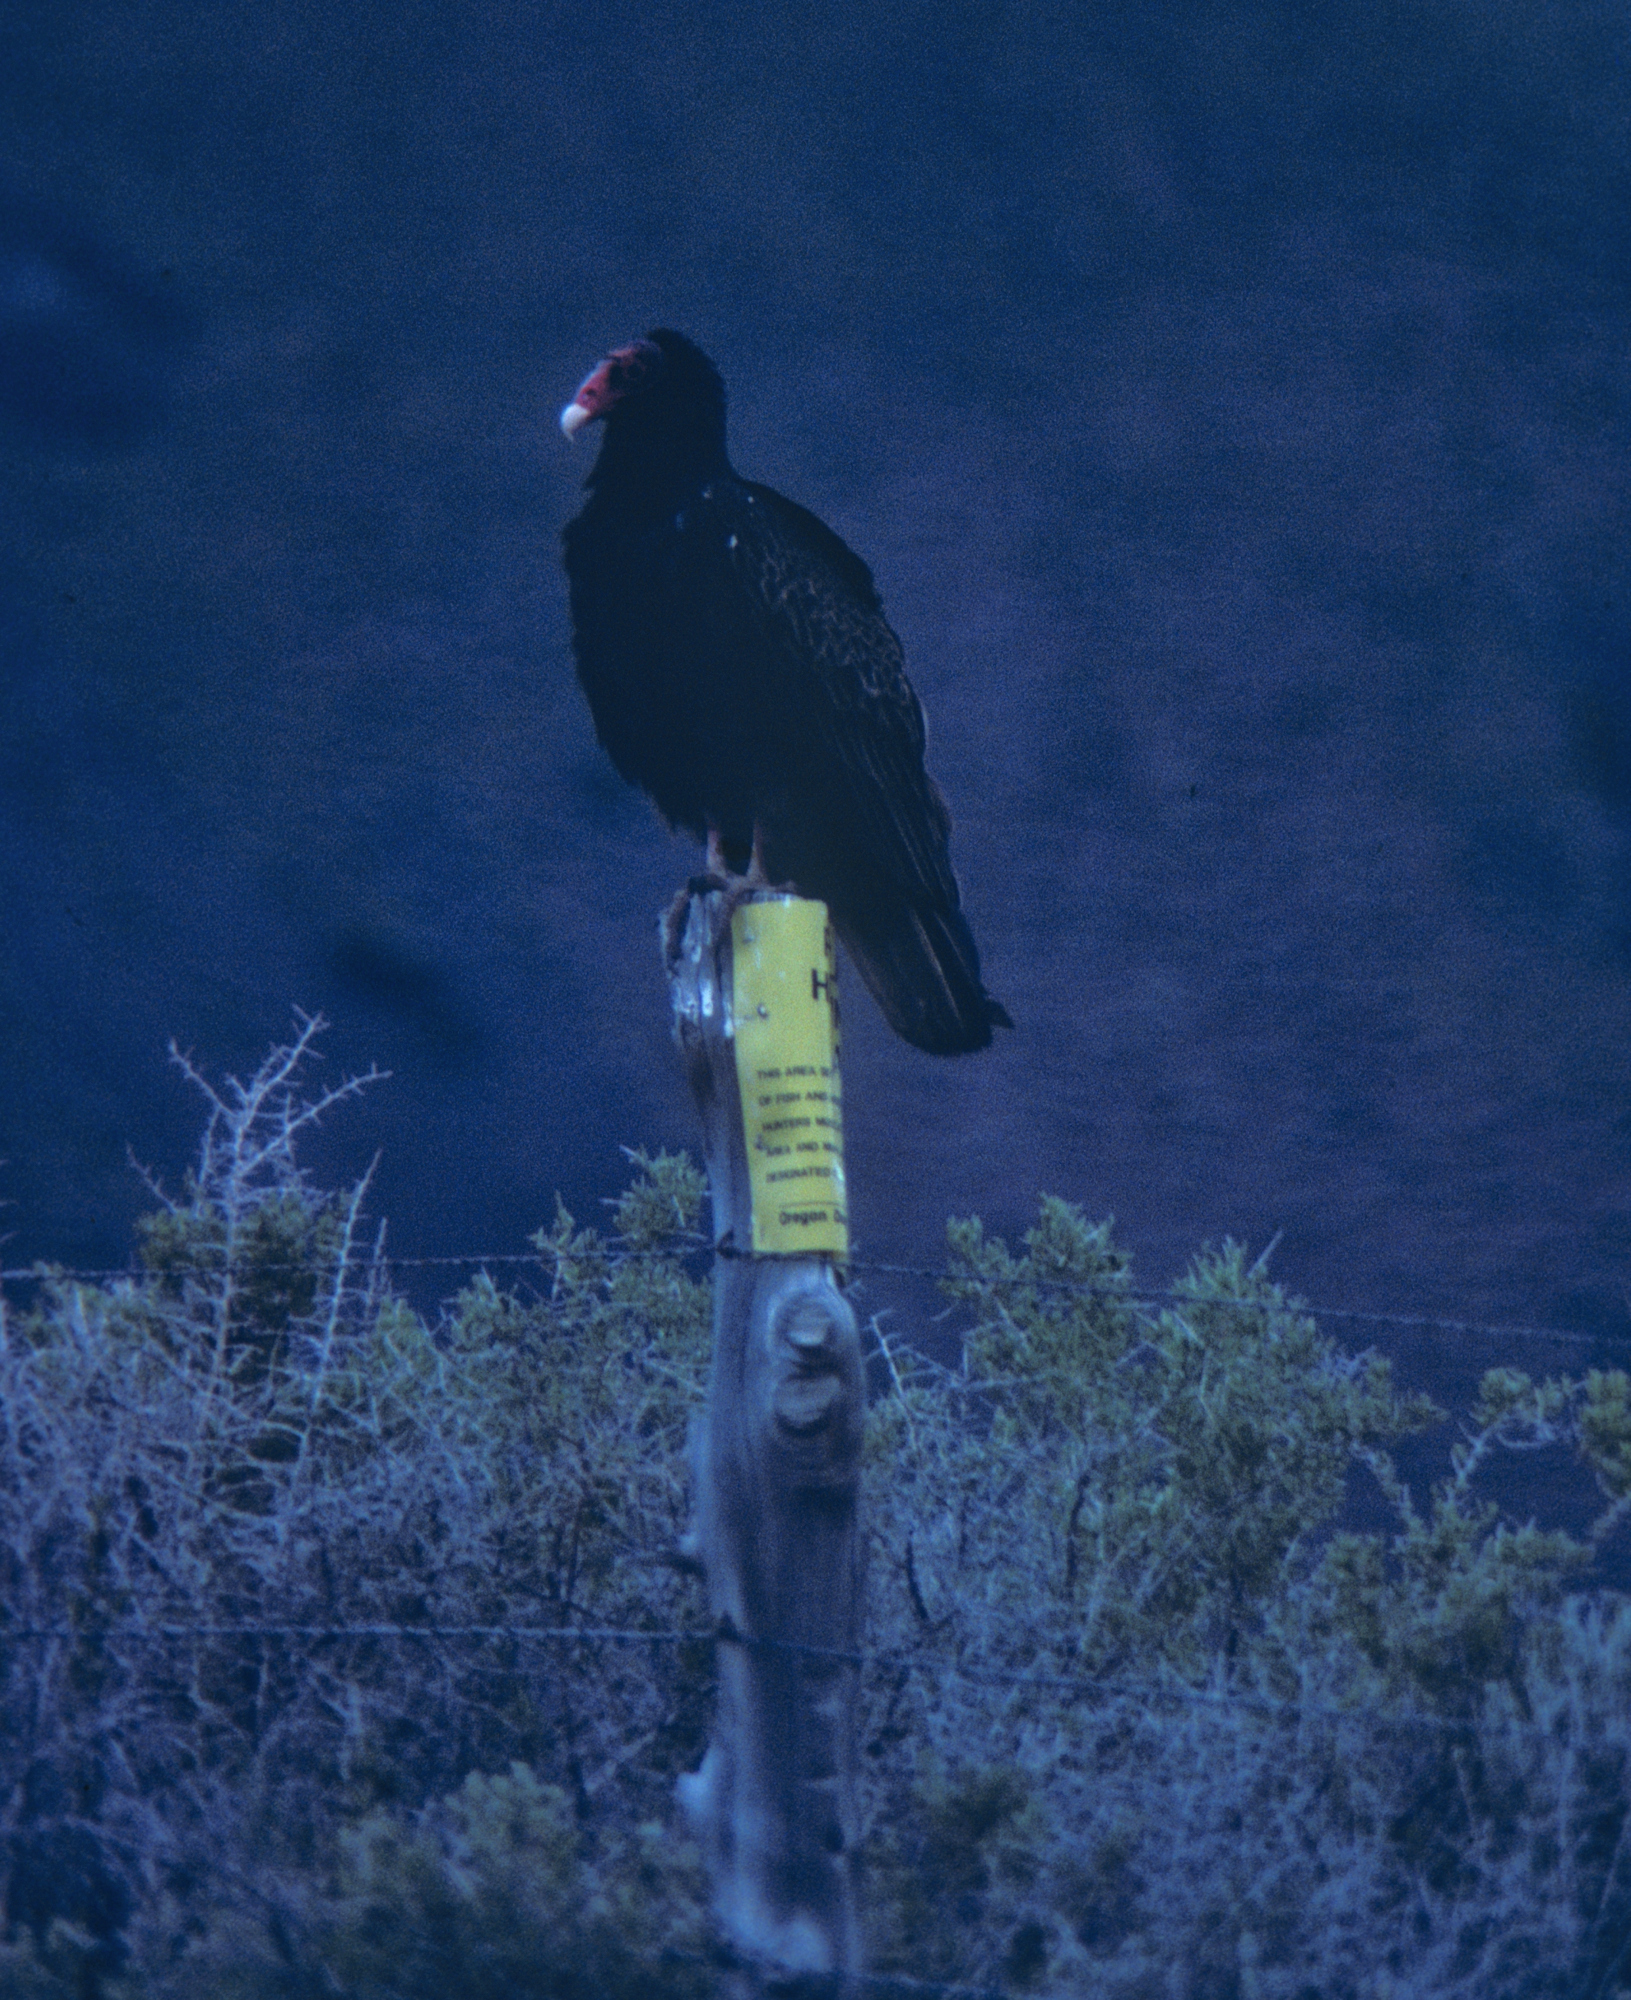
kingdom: Animalia
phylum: Chordata
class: Aves
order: Accipitriformes
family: Cathartidae
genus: Cathartes
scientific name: Cathartes aura
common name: Turkey vulture
